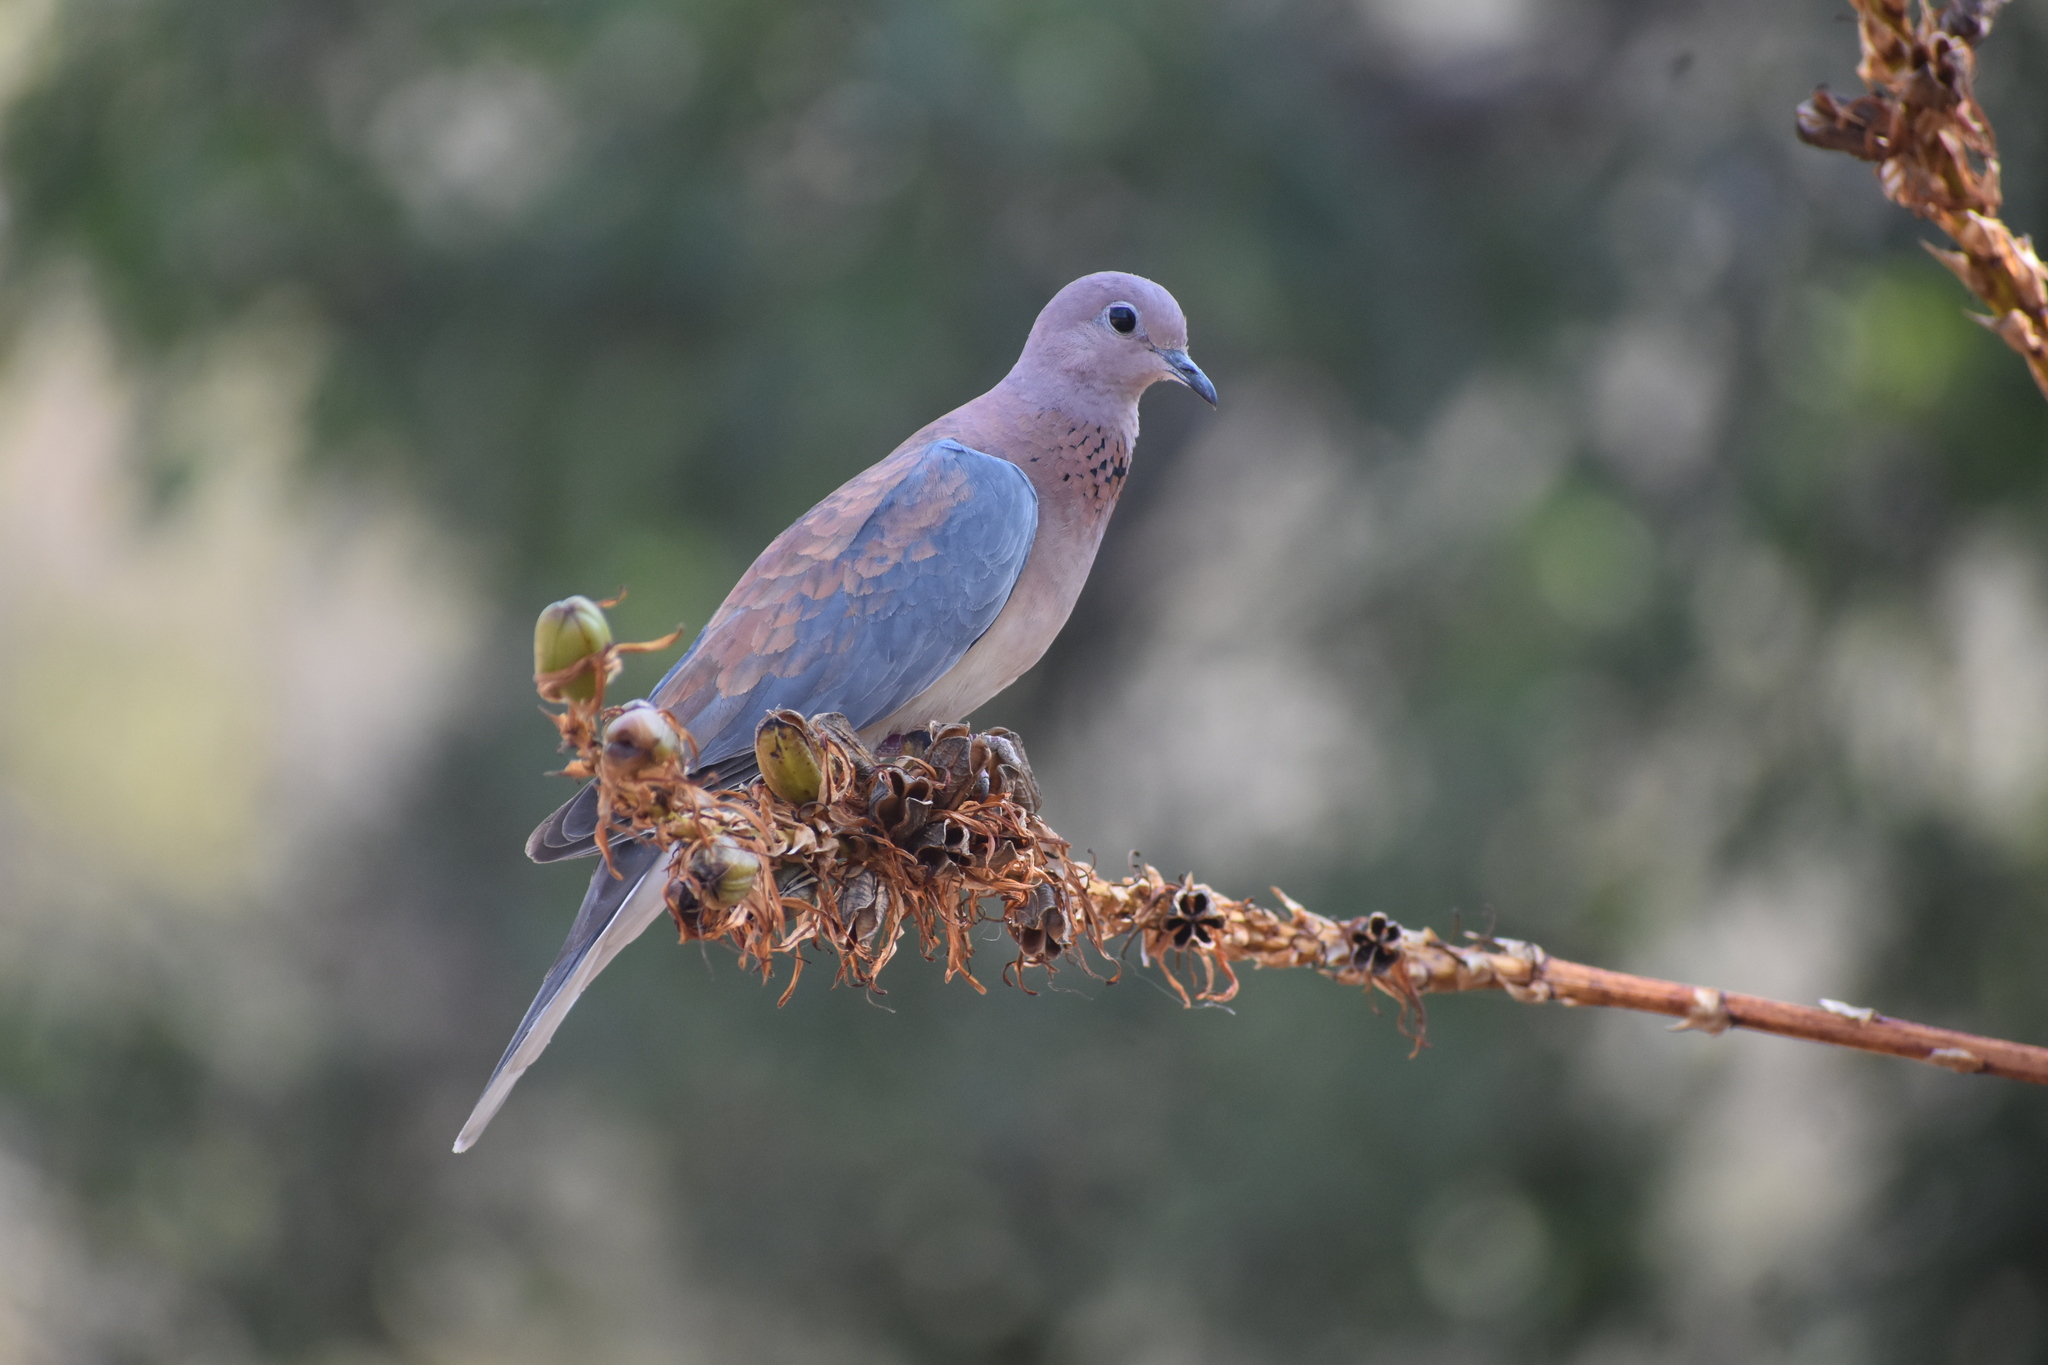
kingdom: Animalia
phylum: Chordata
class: Aves
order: Columbiformes
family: Columbidae
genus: Spilopelia
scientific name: Spilopelia senegalensis
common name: Laughing dove
